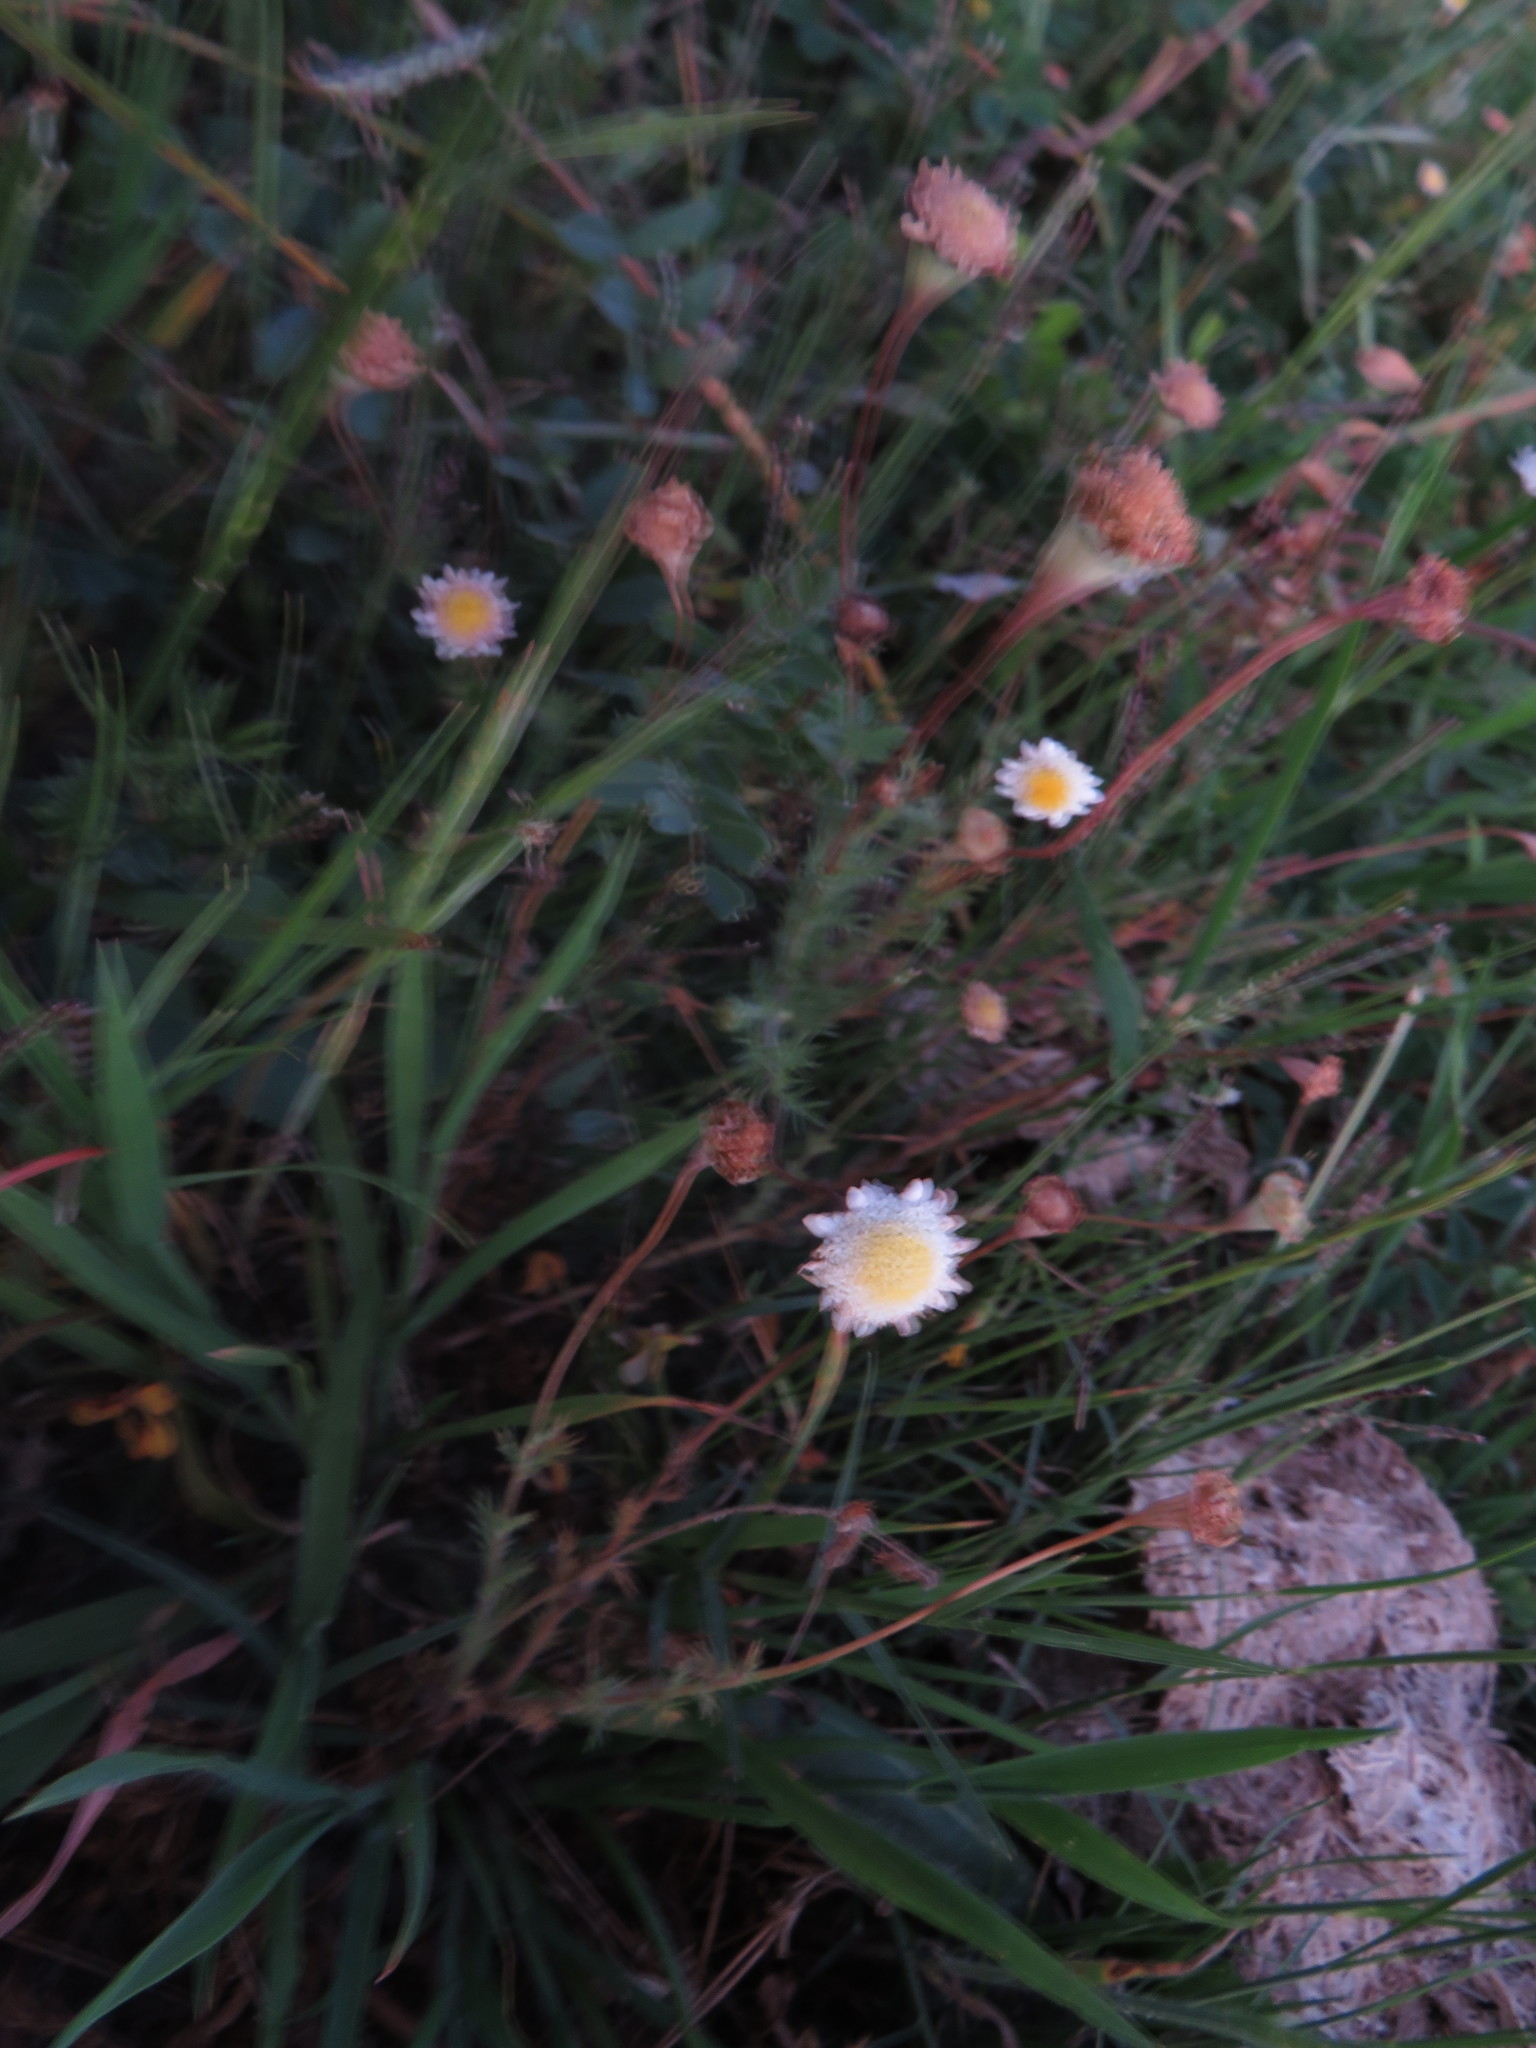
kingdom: Plantae
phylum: Tracheophyta
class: Magnoliopsida
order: Asterales
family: Asteraceae
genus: Cotula
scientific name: Cotula turbinata
